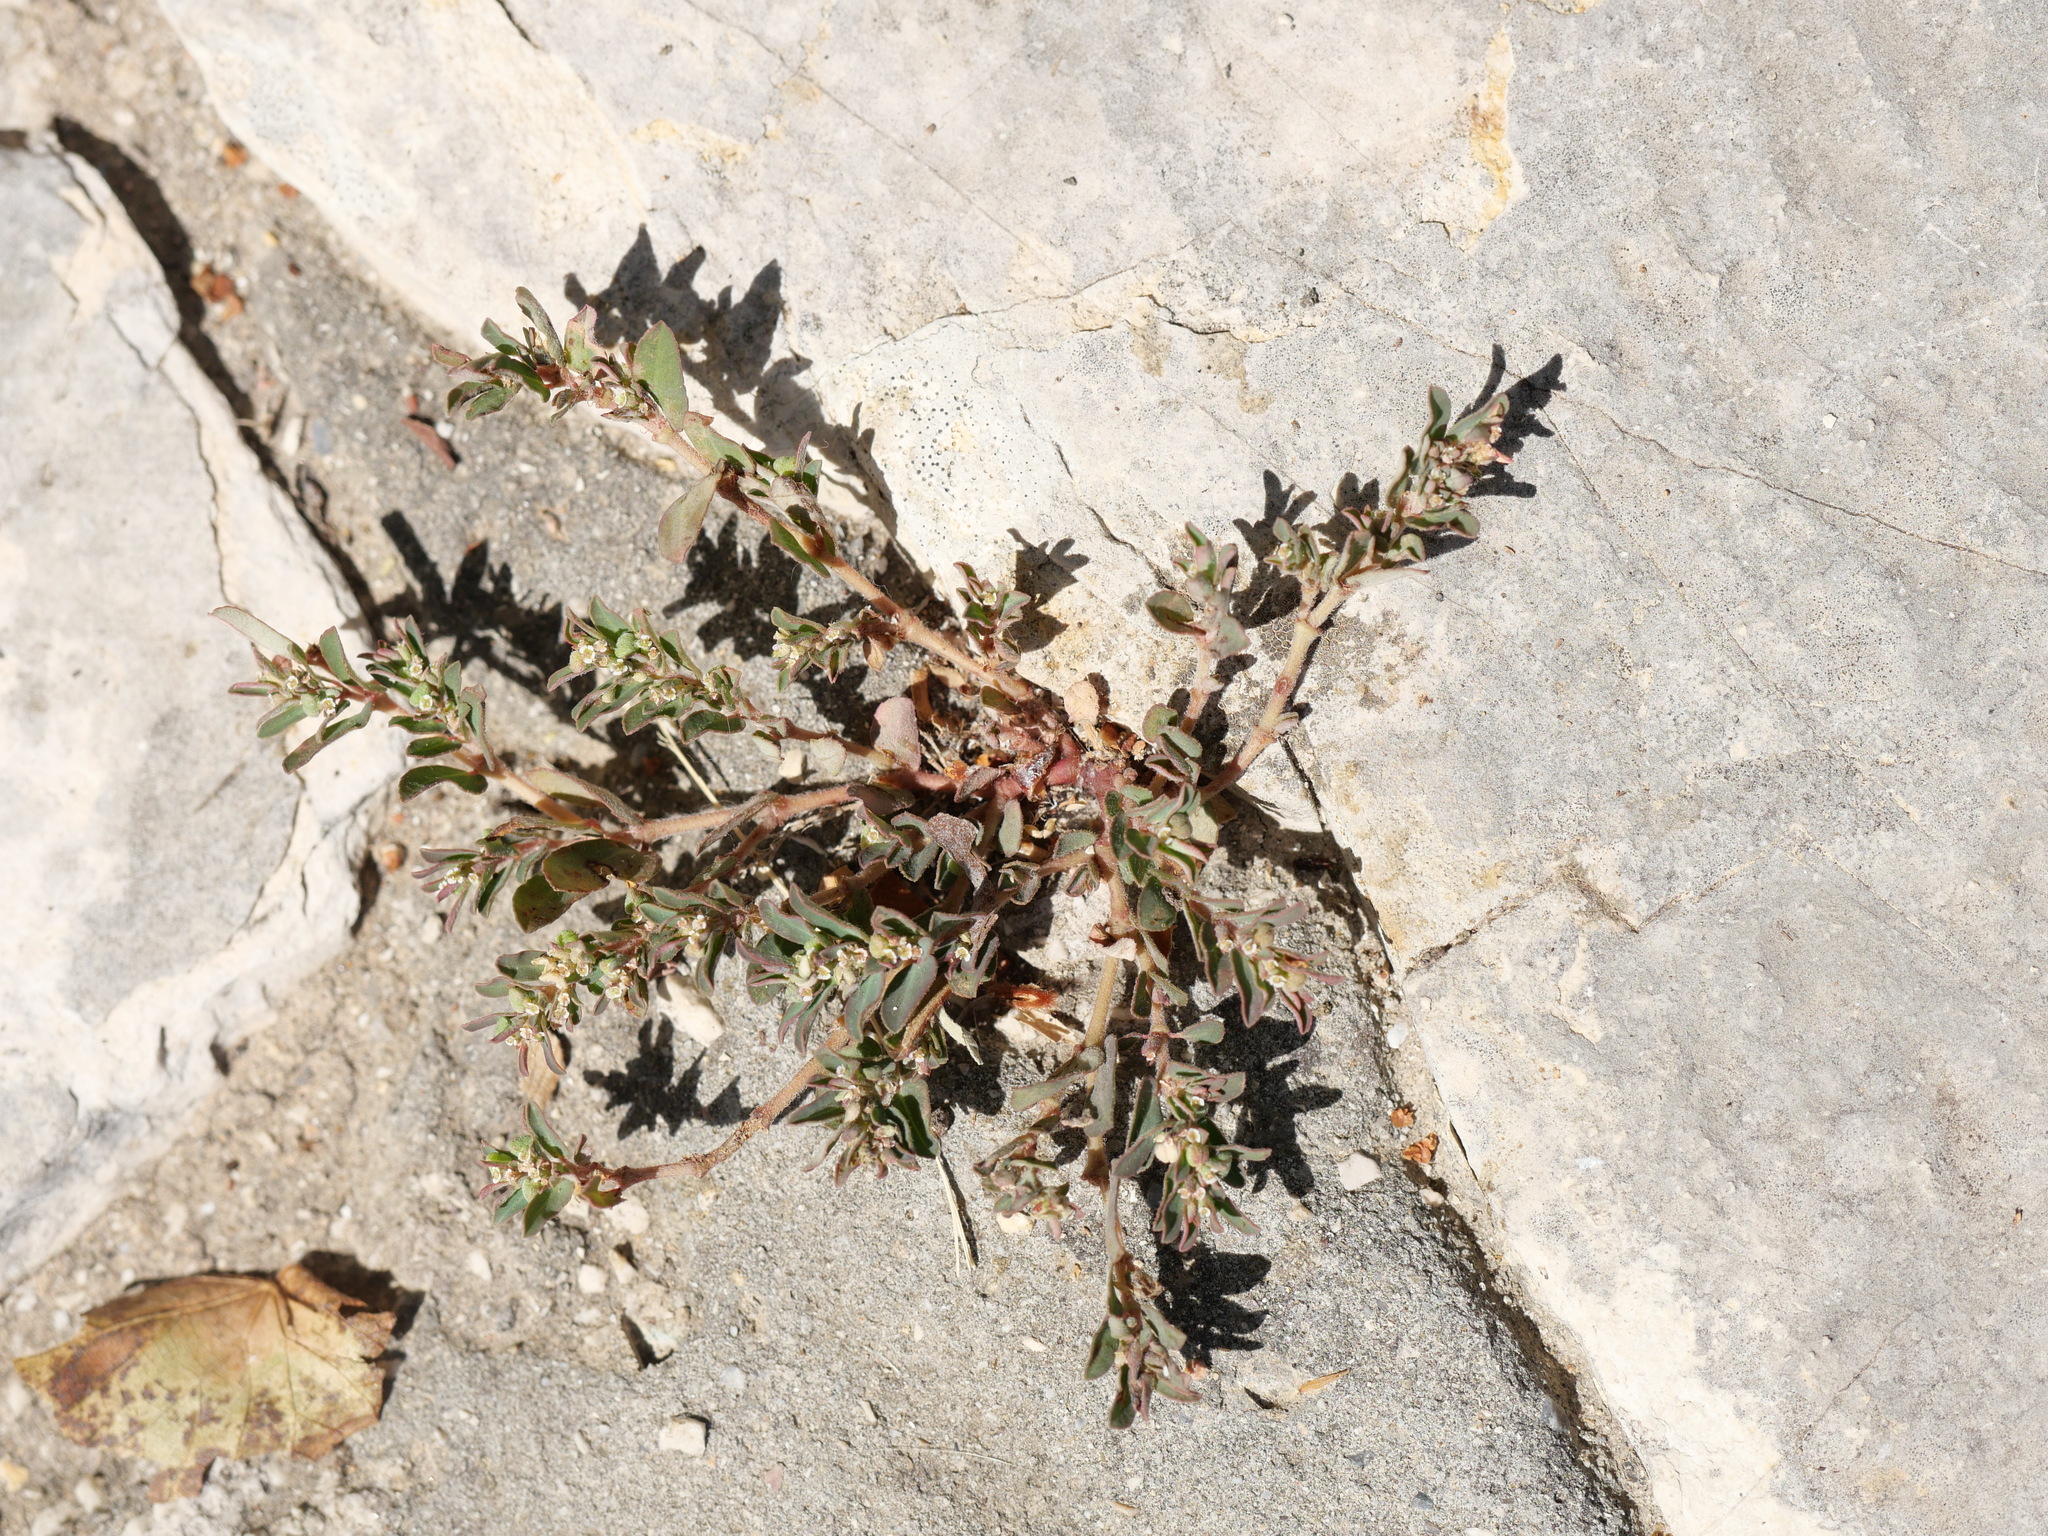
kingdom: Plantae
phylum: Tracheophyta
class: Magnoliopsida
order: Malpighiales
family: Euphorbiaceae
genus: Euphorbia
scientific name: Euphorbia maculata
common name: Spotted spurge
